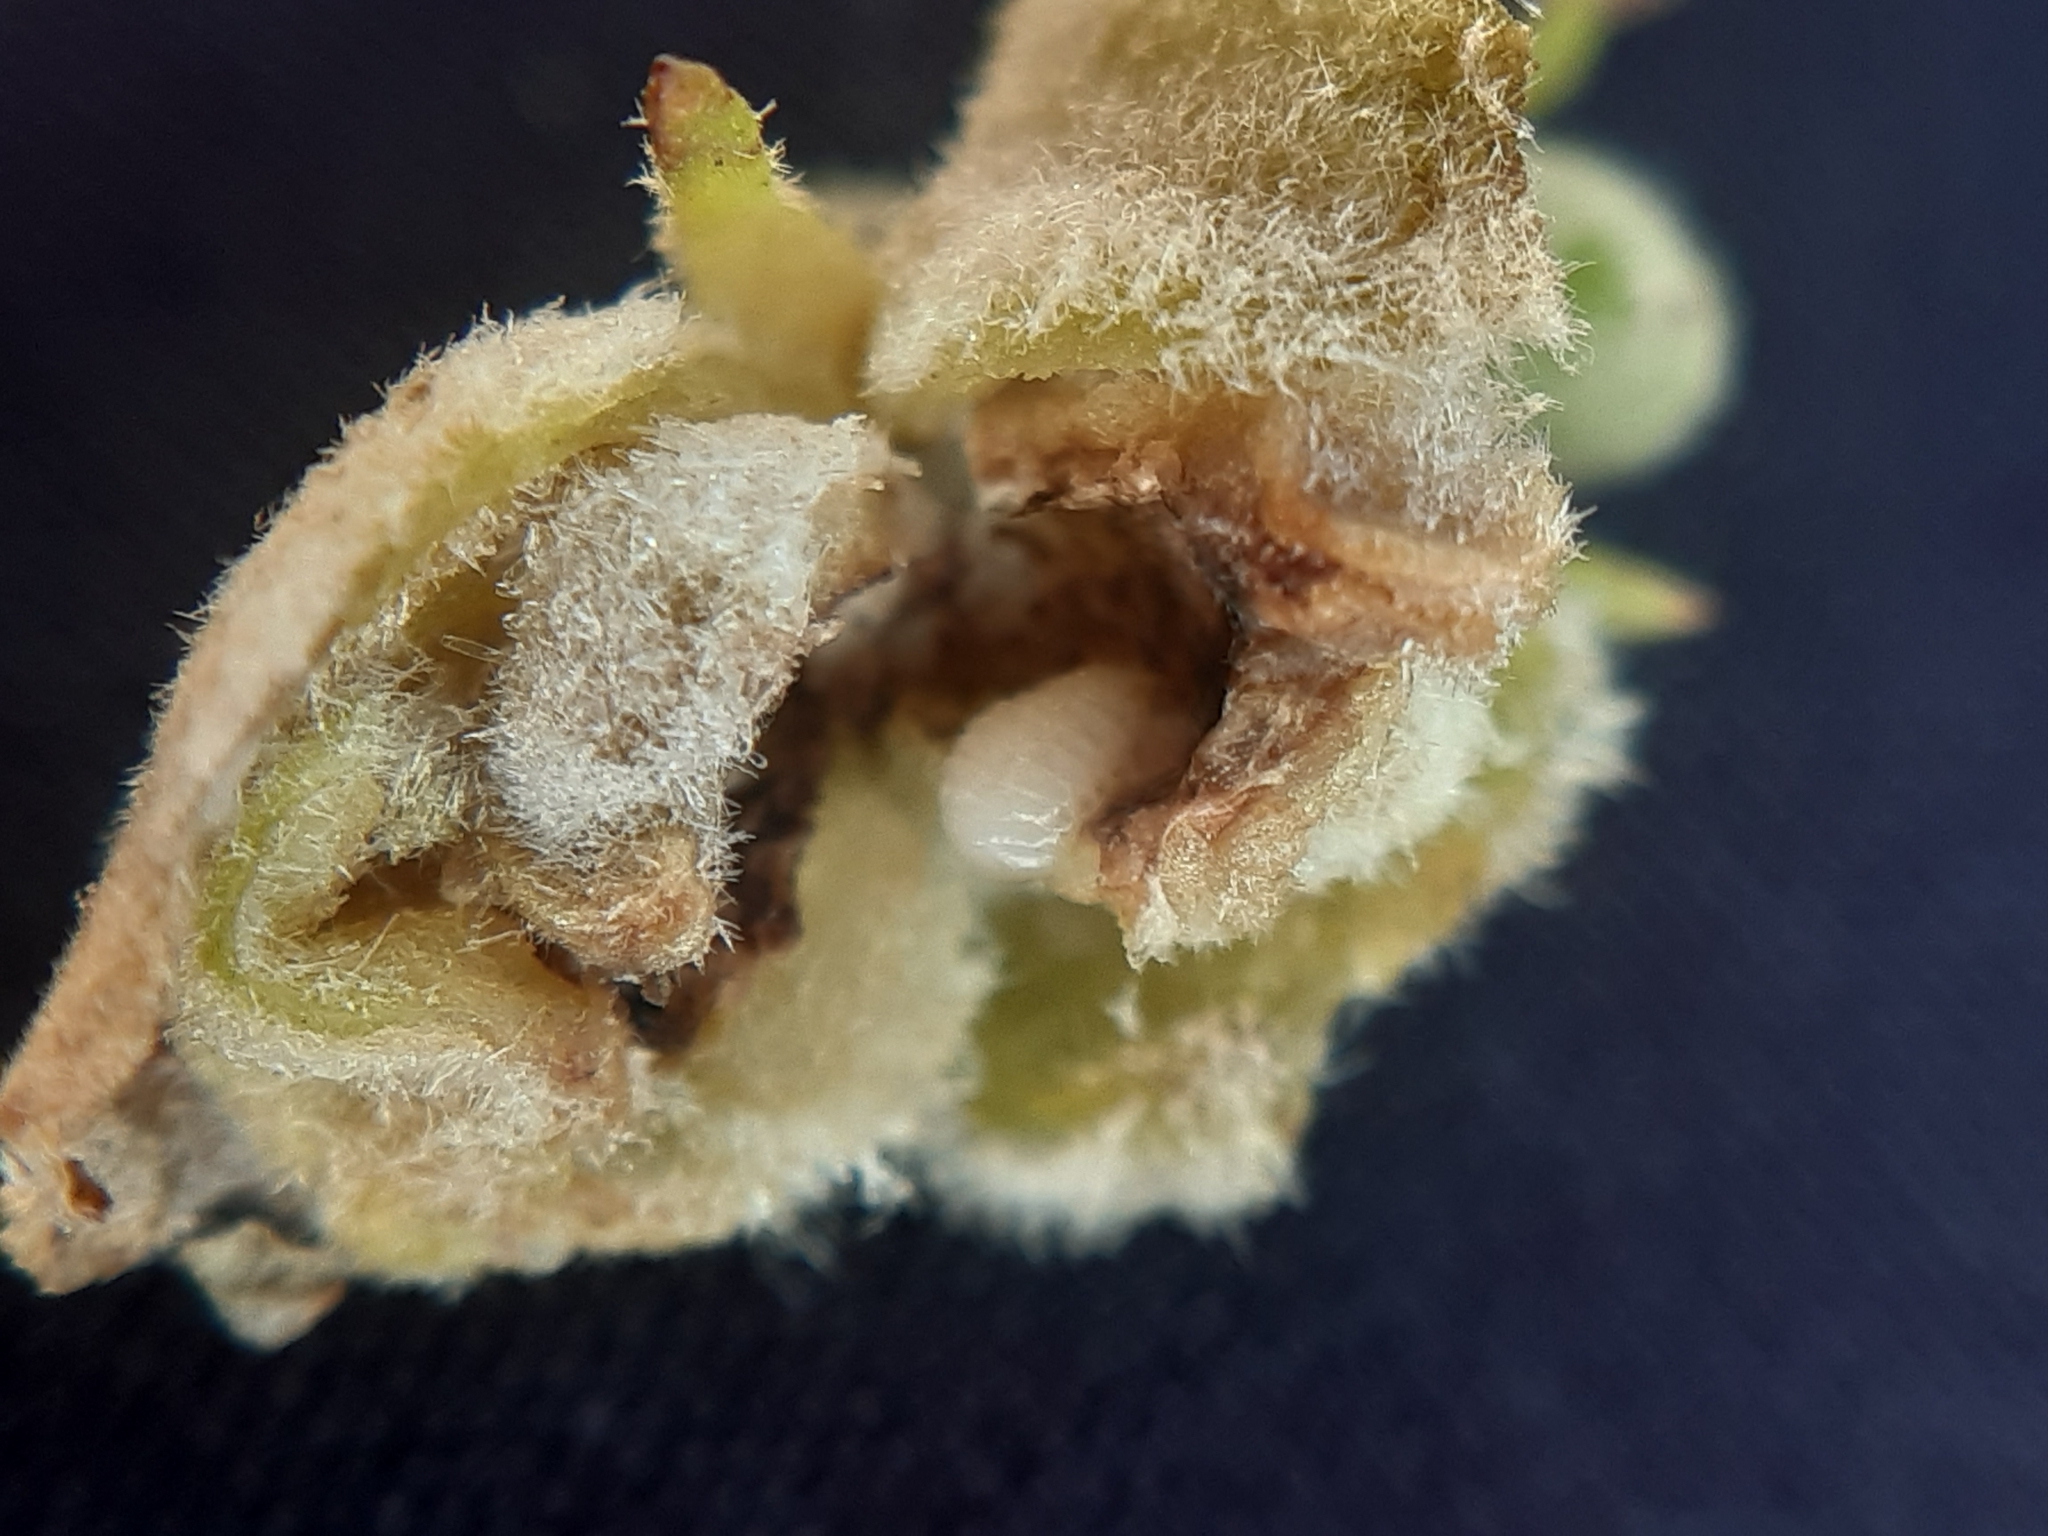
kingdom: Animalia
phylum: Arthropoda
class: Insecta
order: Diptera
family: Cecidomyiidae
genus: Asphondylia
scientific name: Asphondylia verbasci
